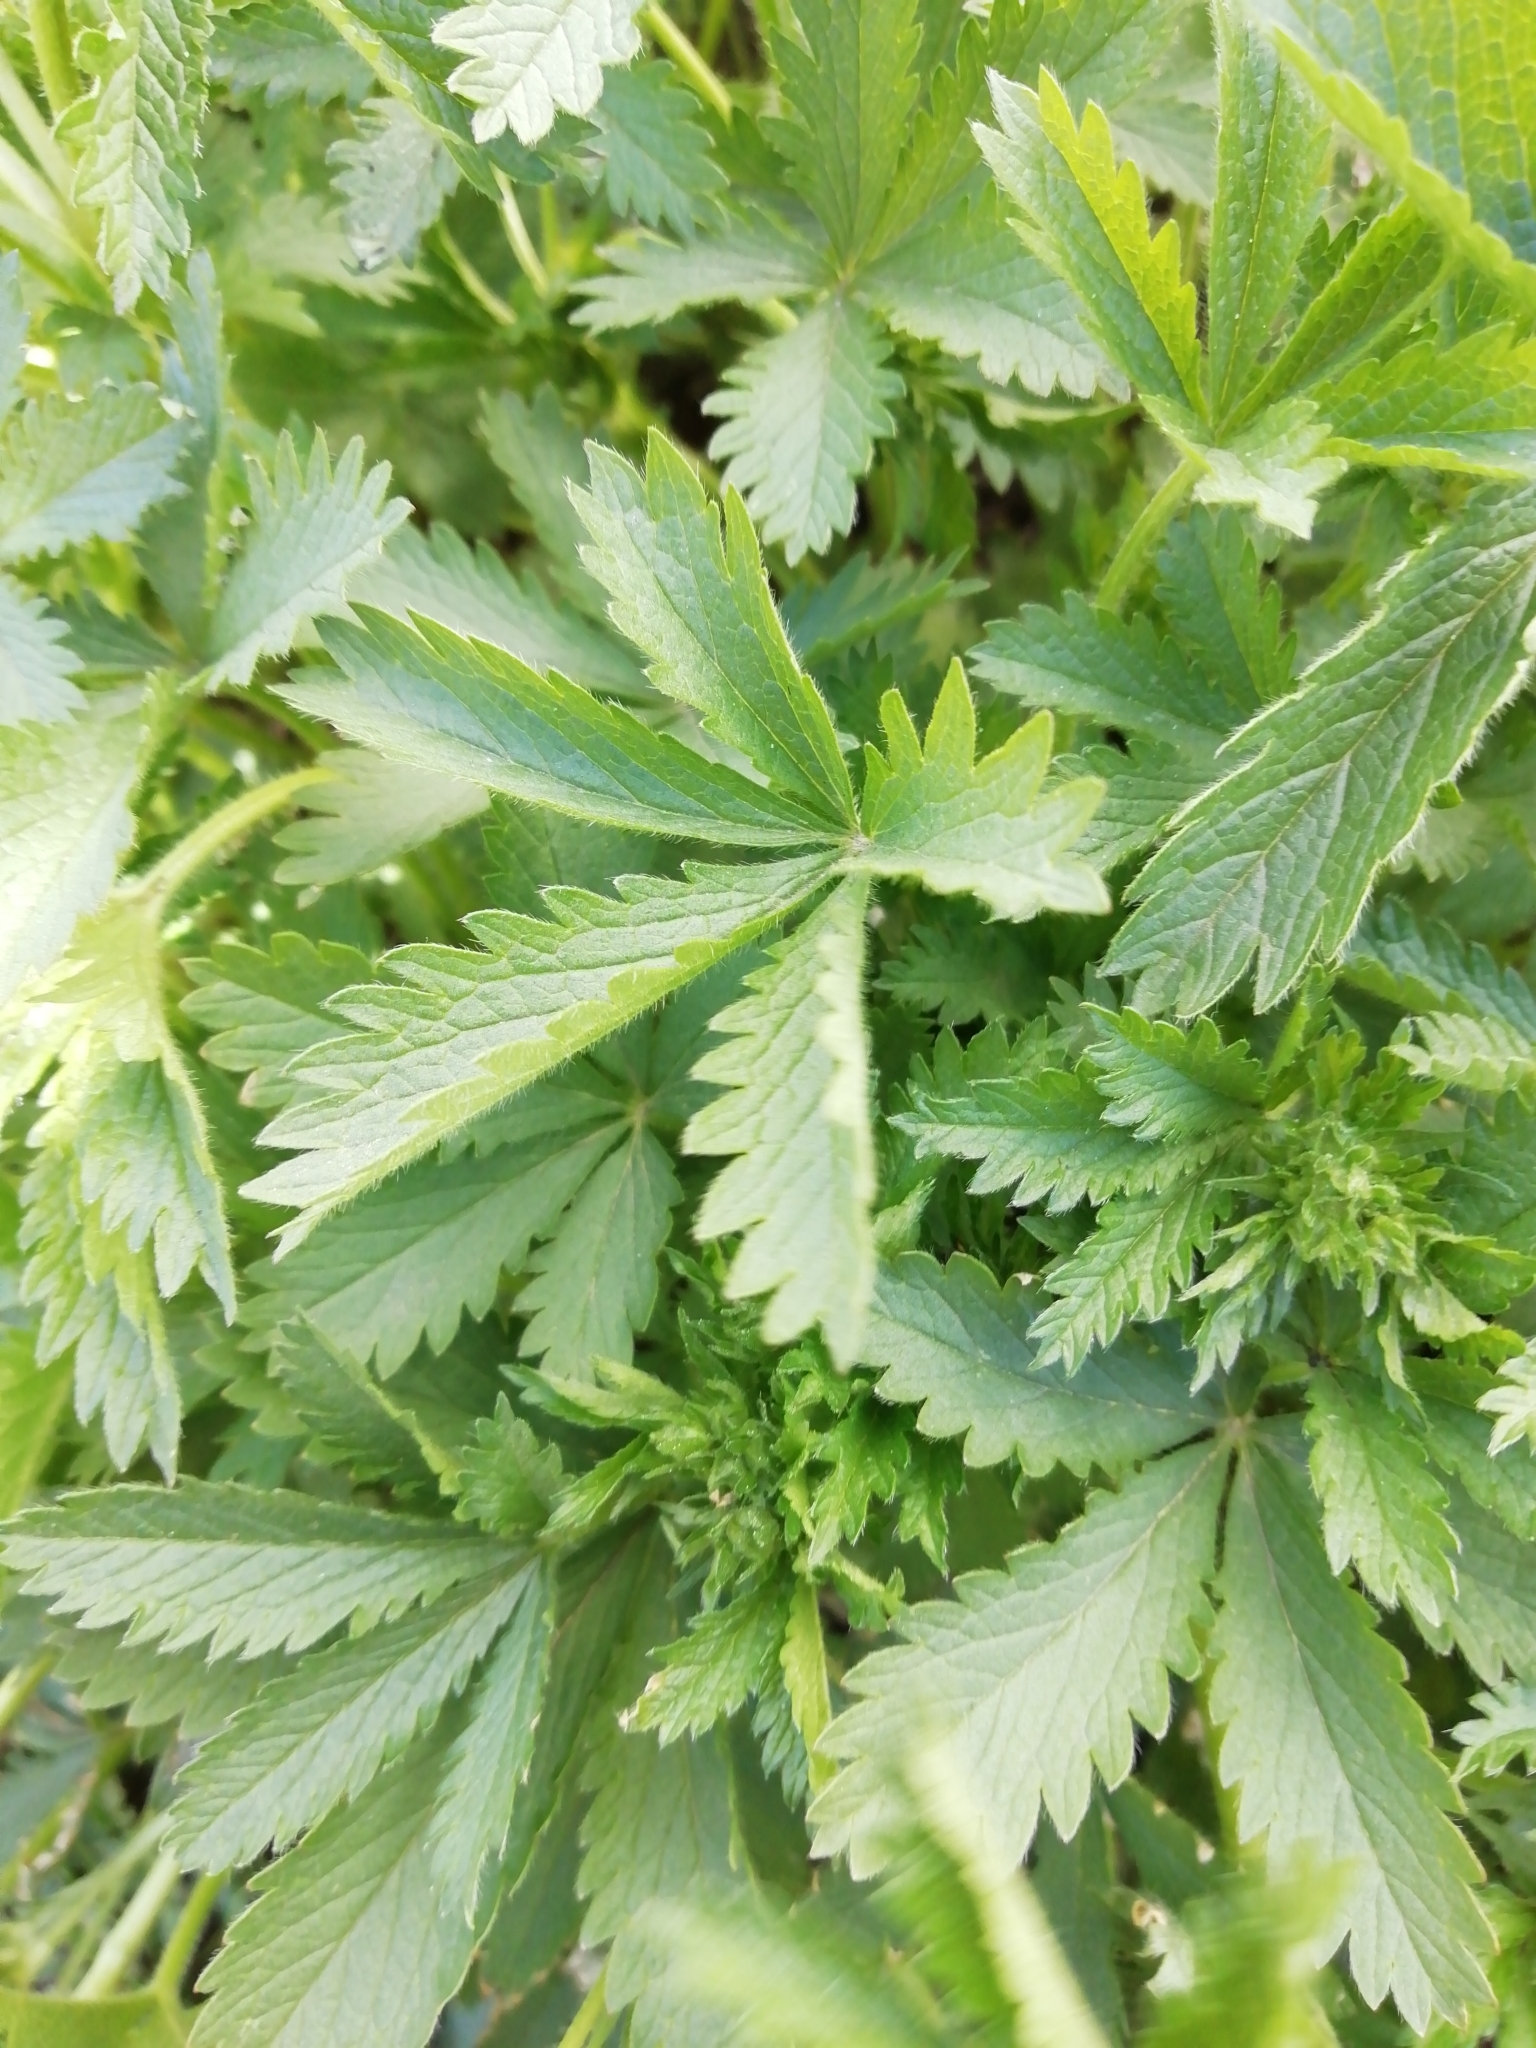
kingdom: Plantae
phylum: Tracheophyta
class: Magnoliopsida
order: Rosales
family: Rosaceae
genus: Potentilla
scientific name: Potentilla chrysantha
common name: Thuringian cinquefoil
